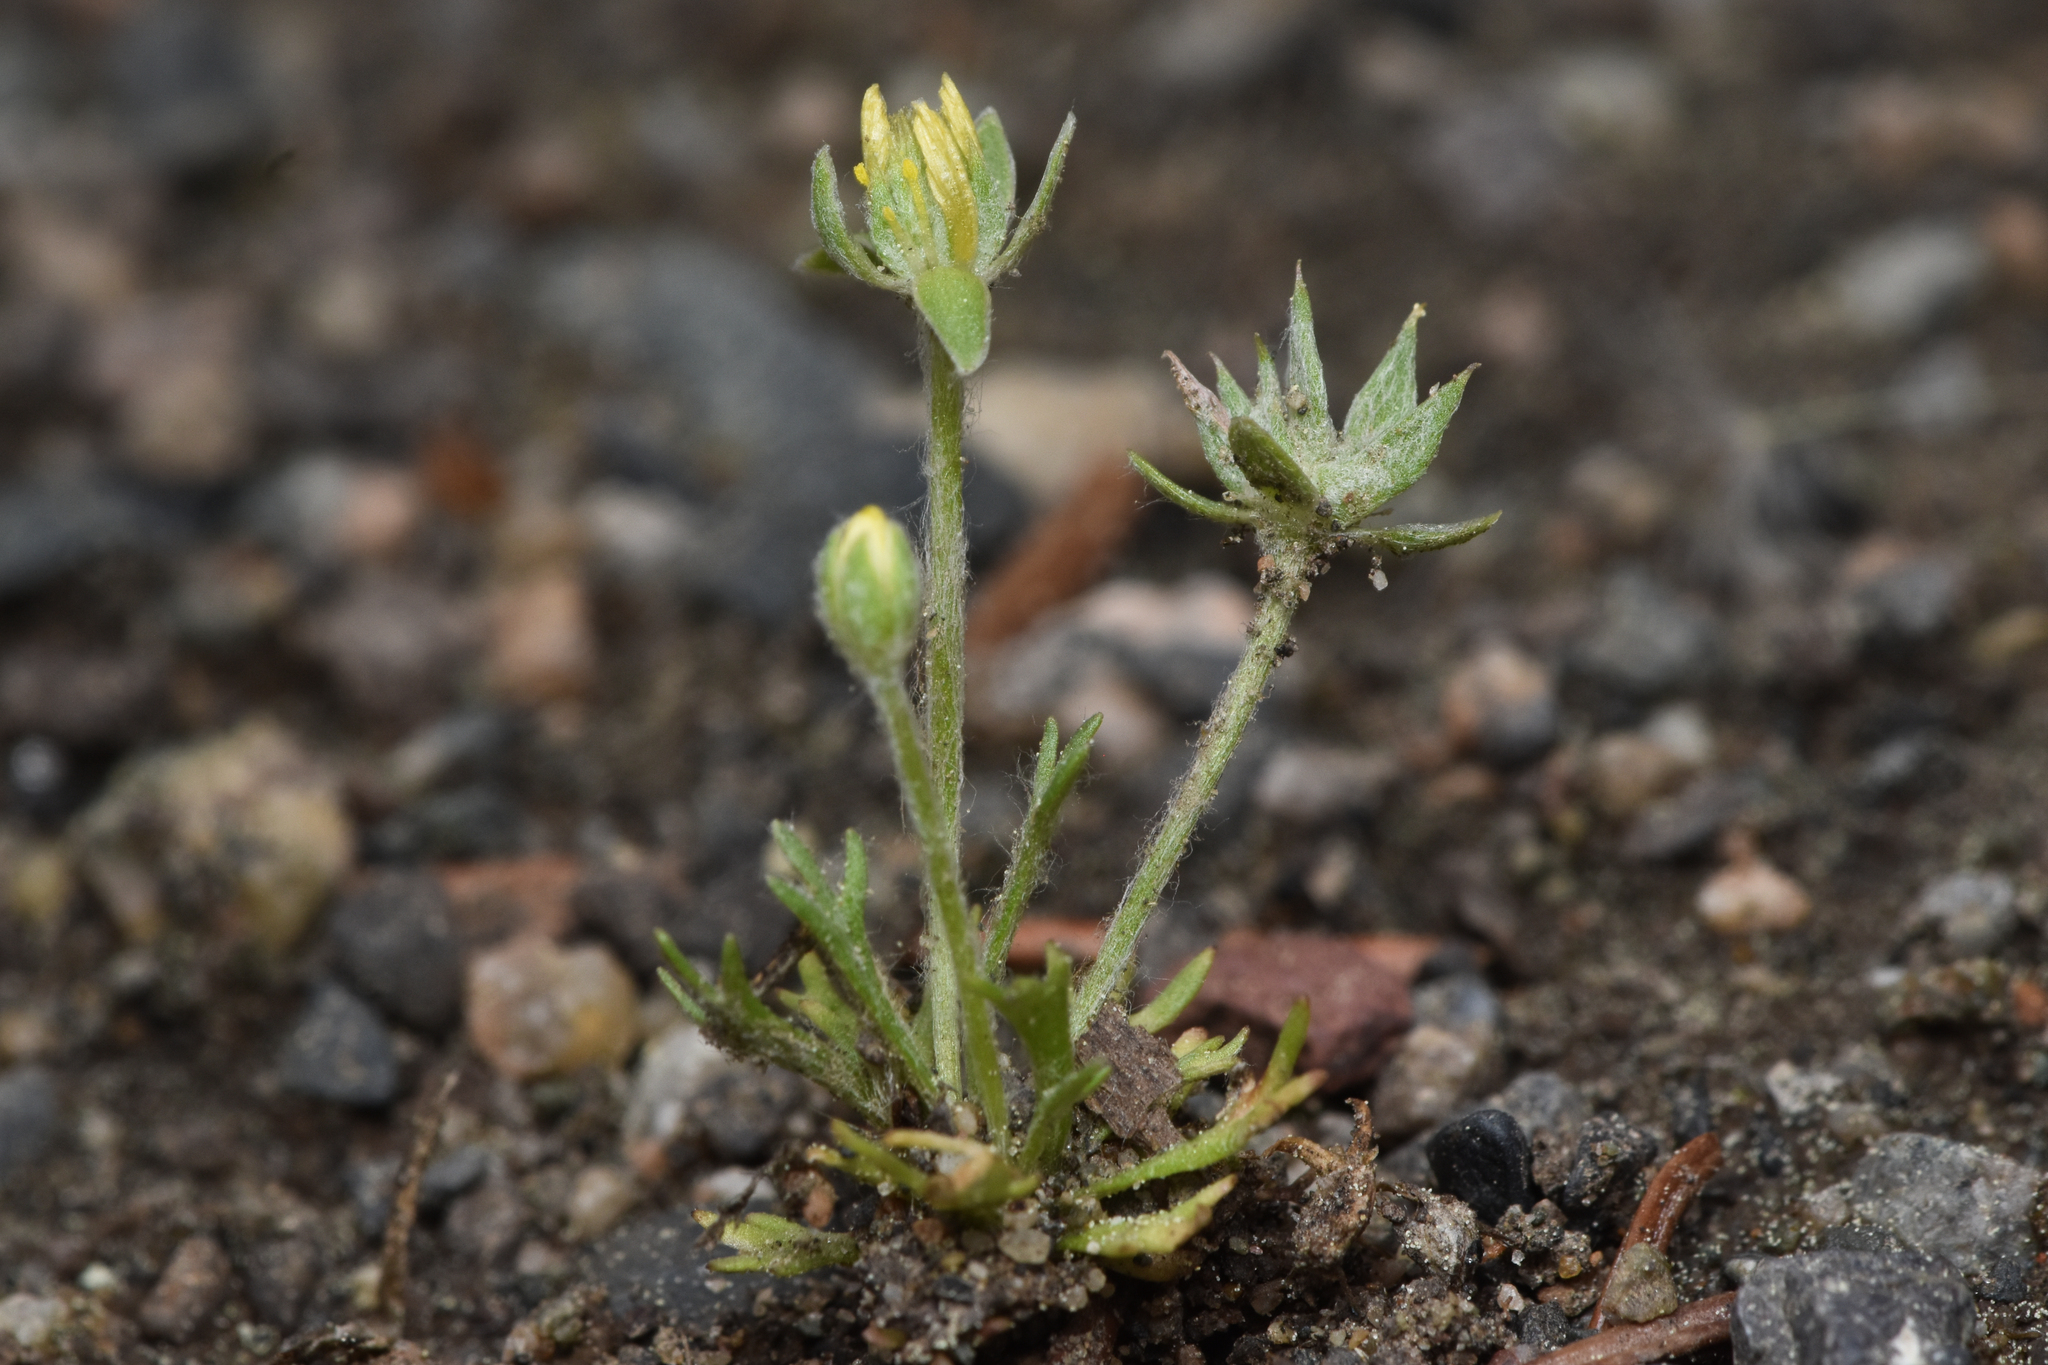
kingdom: Plantae
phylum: Tracheophyta
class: Magnoliopsida
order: Ranunculales
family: Ranunculaceae
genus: Ceratocephala
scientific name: Ceratocephala orthoceras
